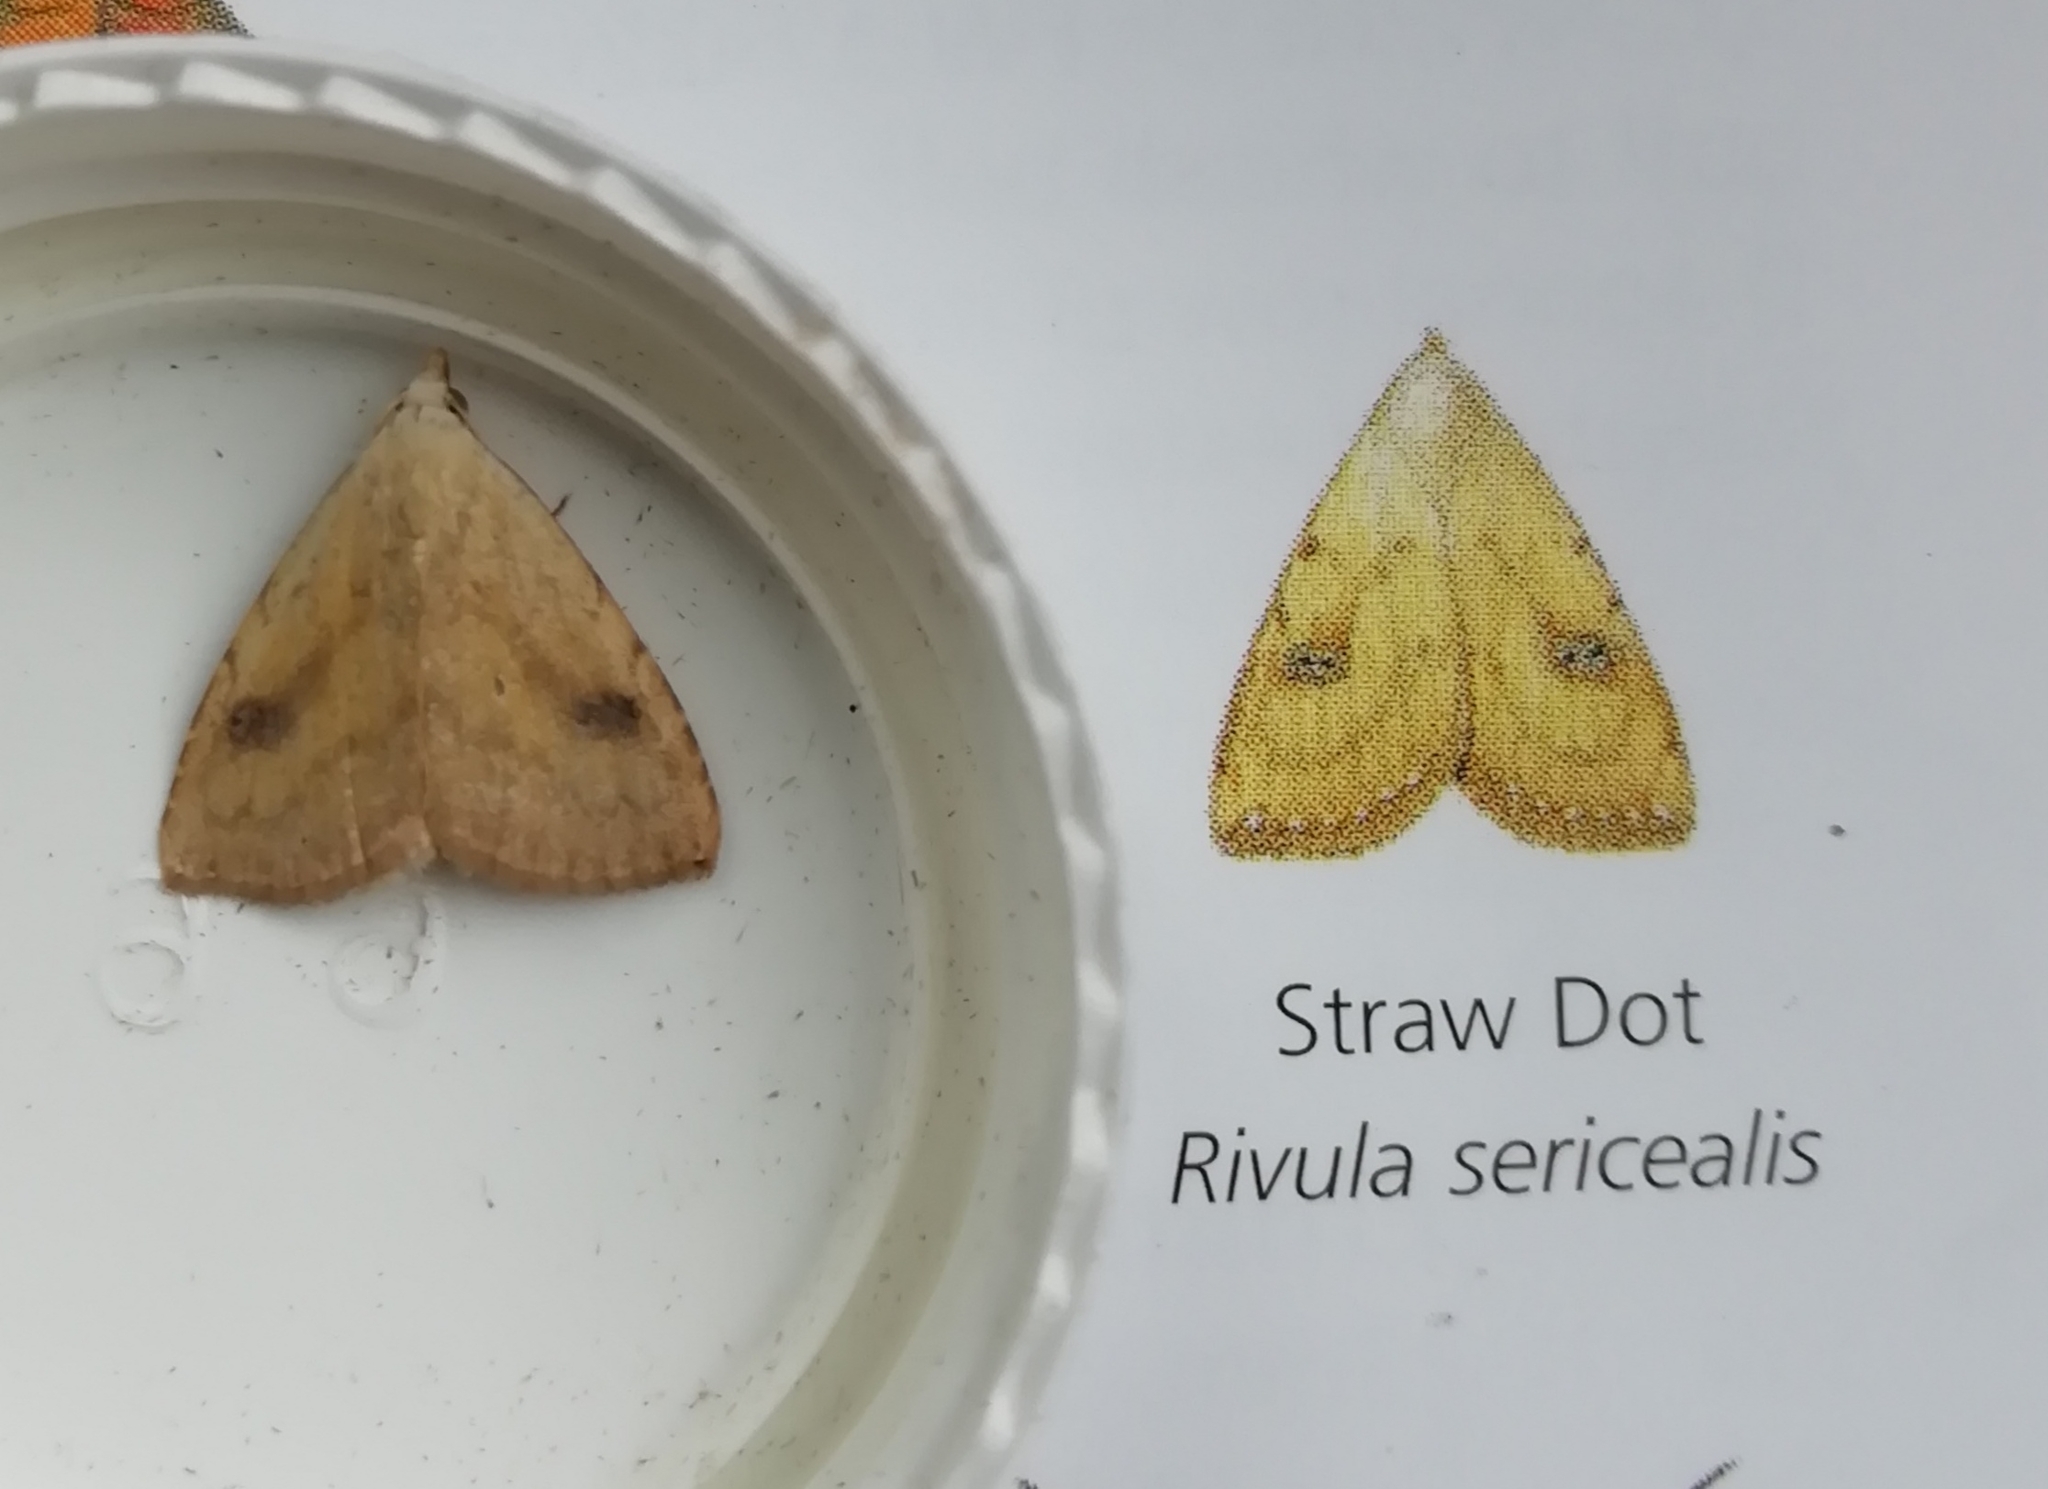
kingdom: Animalia
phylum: Arthropoda
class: Insecta
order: Lepidoptera
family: Erebidae
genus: Rivula
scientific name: Rivula sericealis
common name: Straw dot
